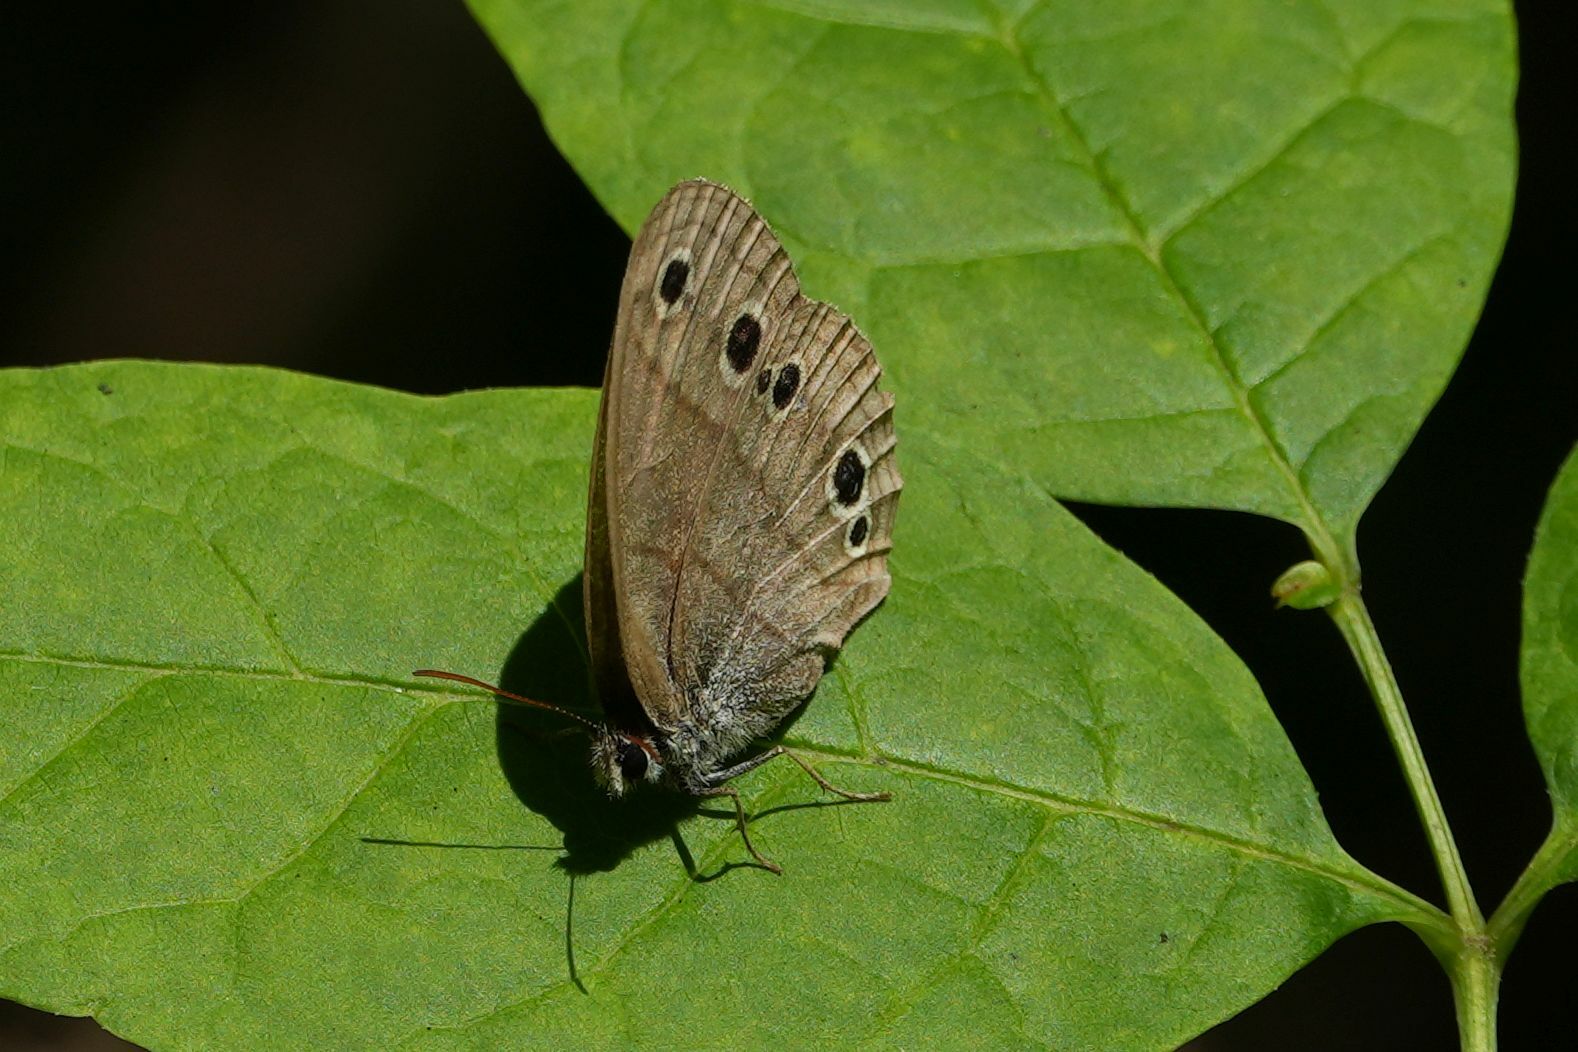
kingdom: Animalia
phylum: Arthropoda
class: Insecta
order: Lepidoptera
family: Nymphalidae
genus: Euptychia
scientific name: Euptychia cymela
